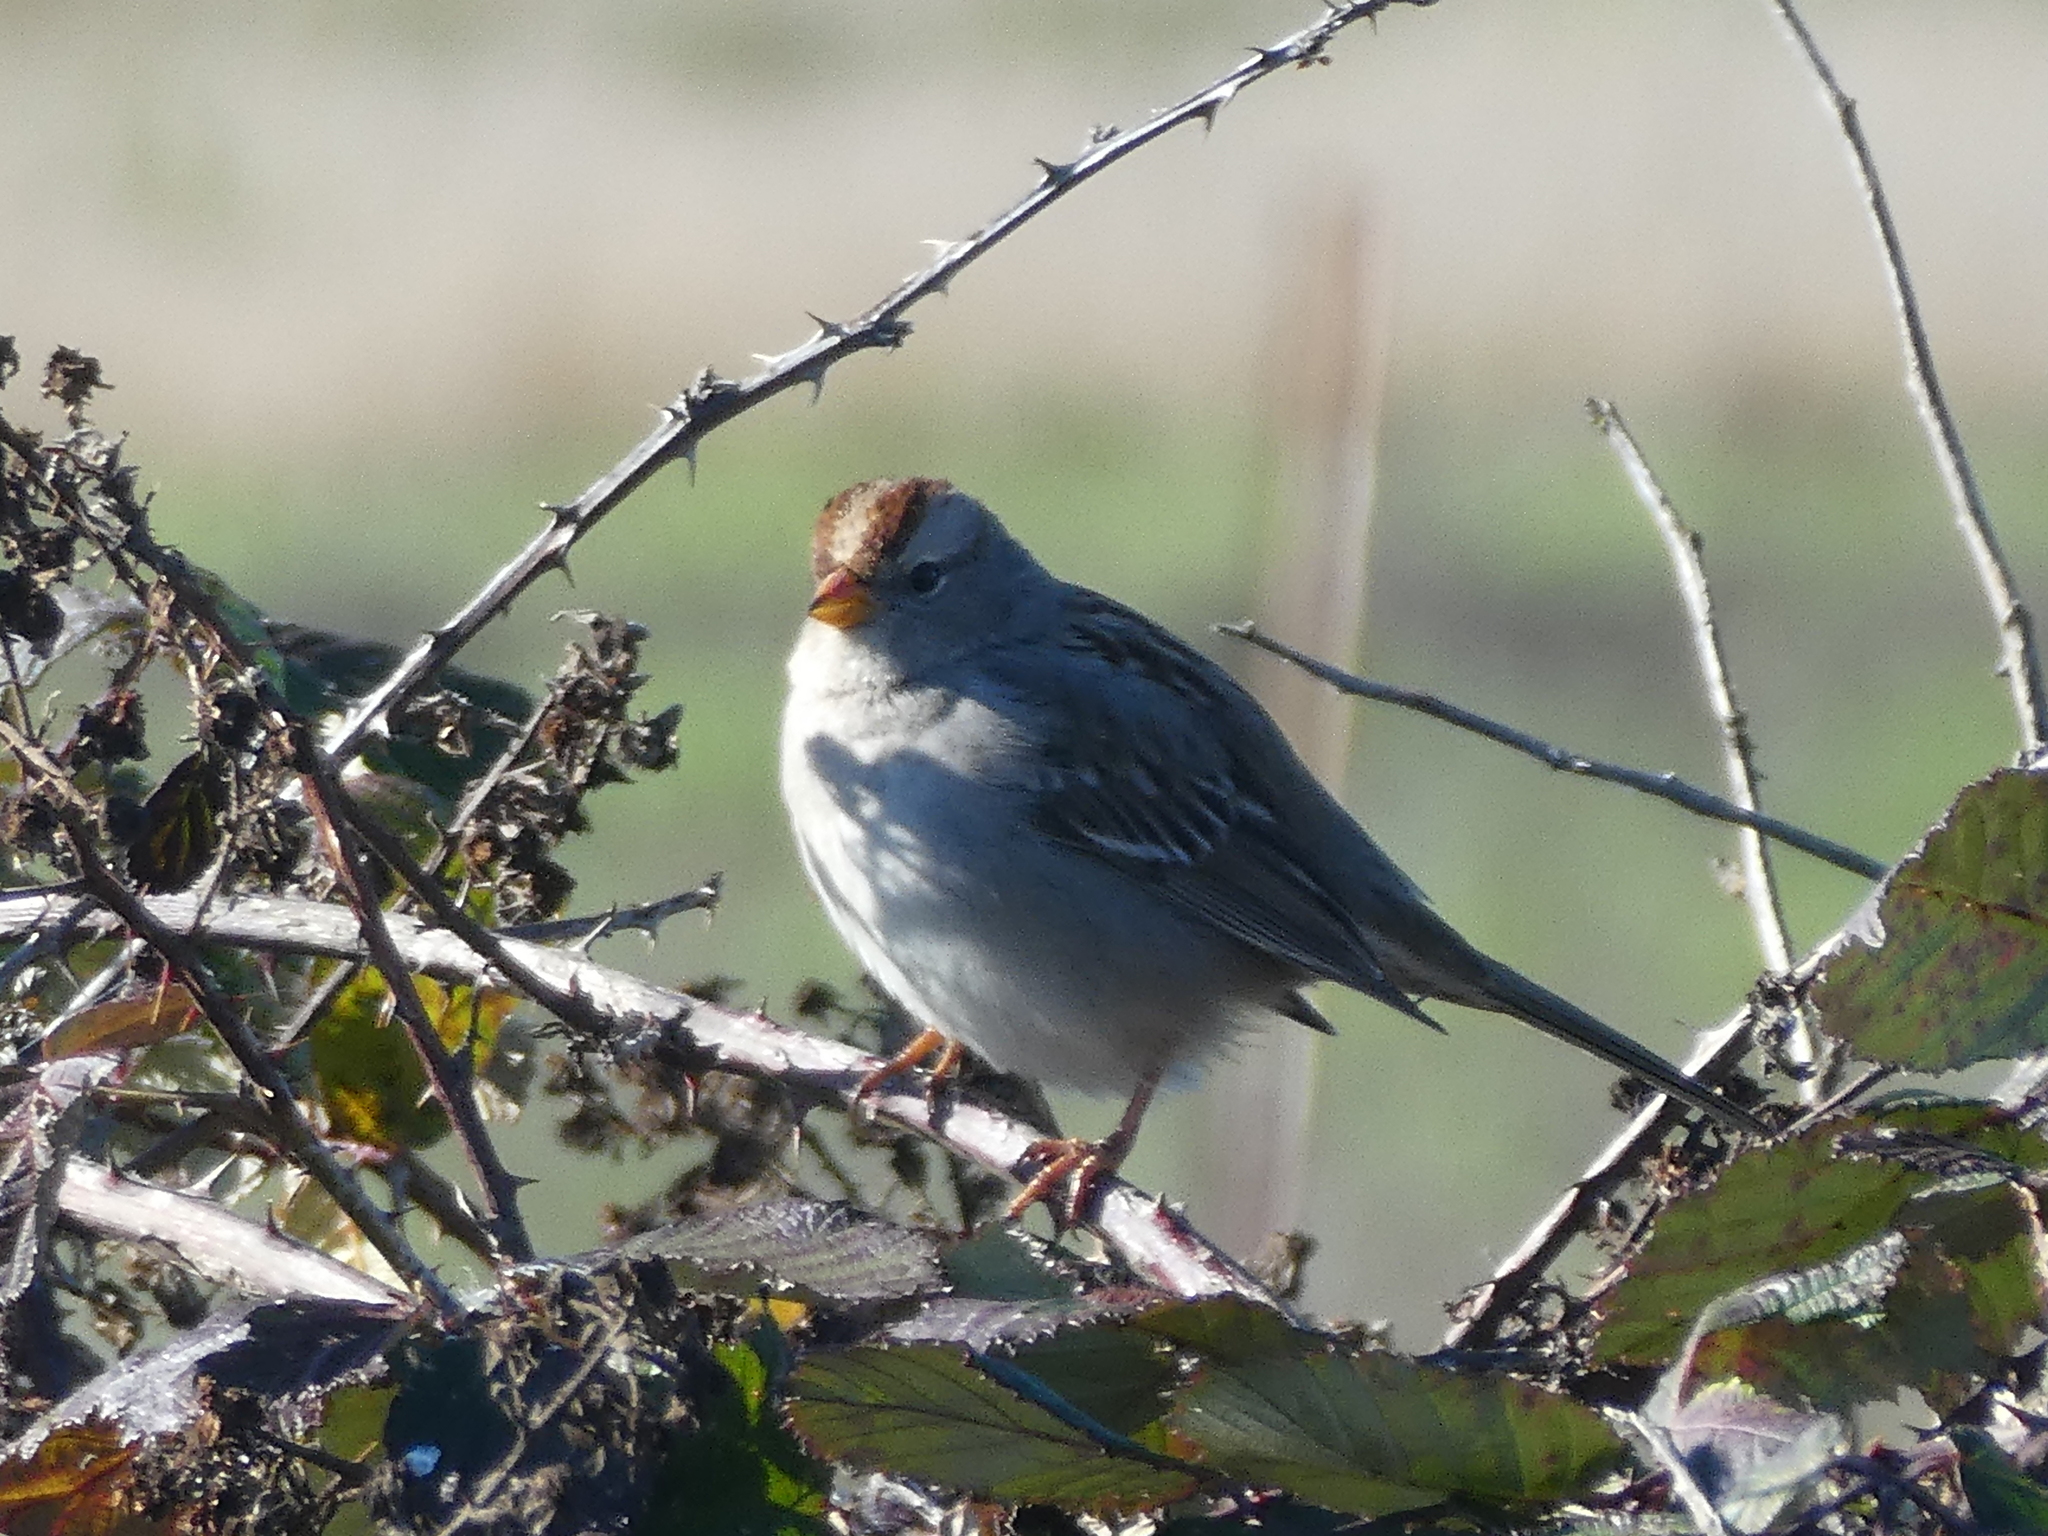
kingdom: Animalia
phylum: Chordata
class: Aves
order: Passeriformes
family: Passerellidae
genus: Zonotrichia
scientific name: Zonotrichia leucophrys
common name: White-crowned sparrow
